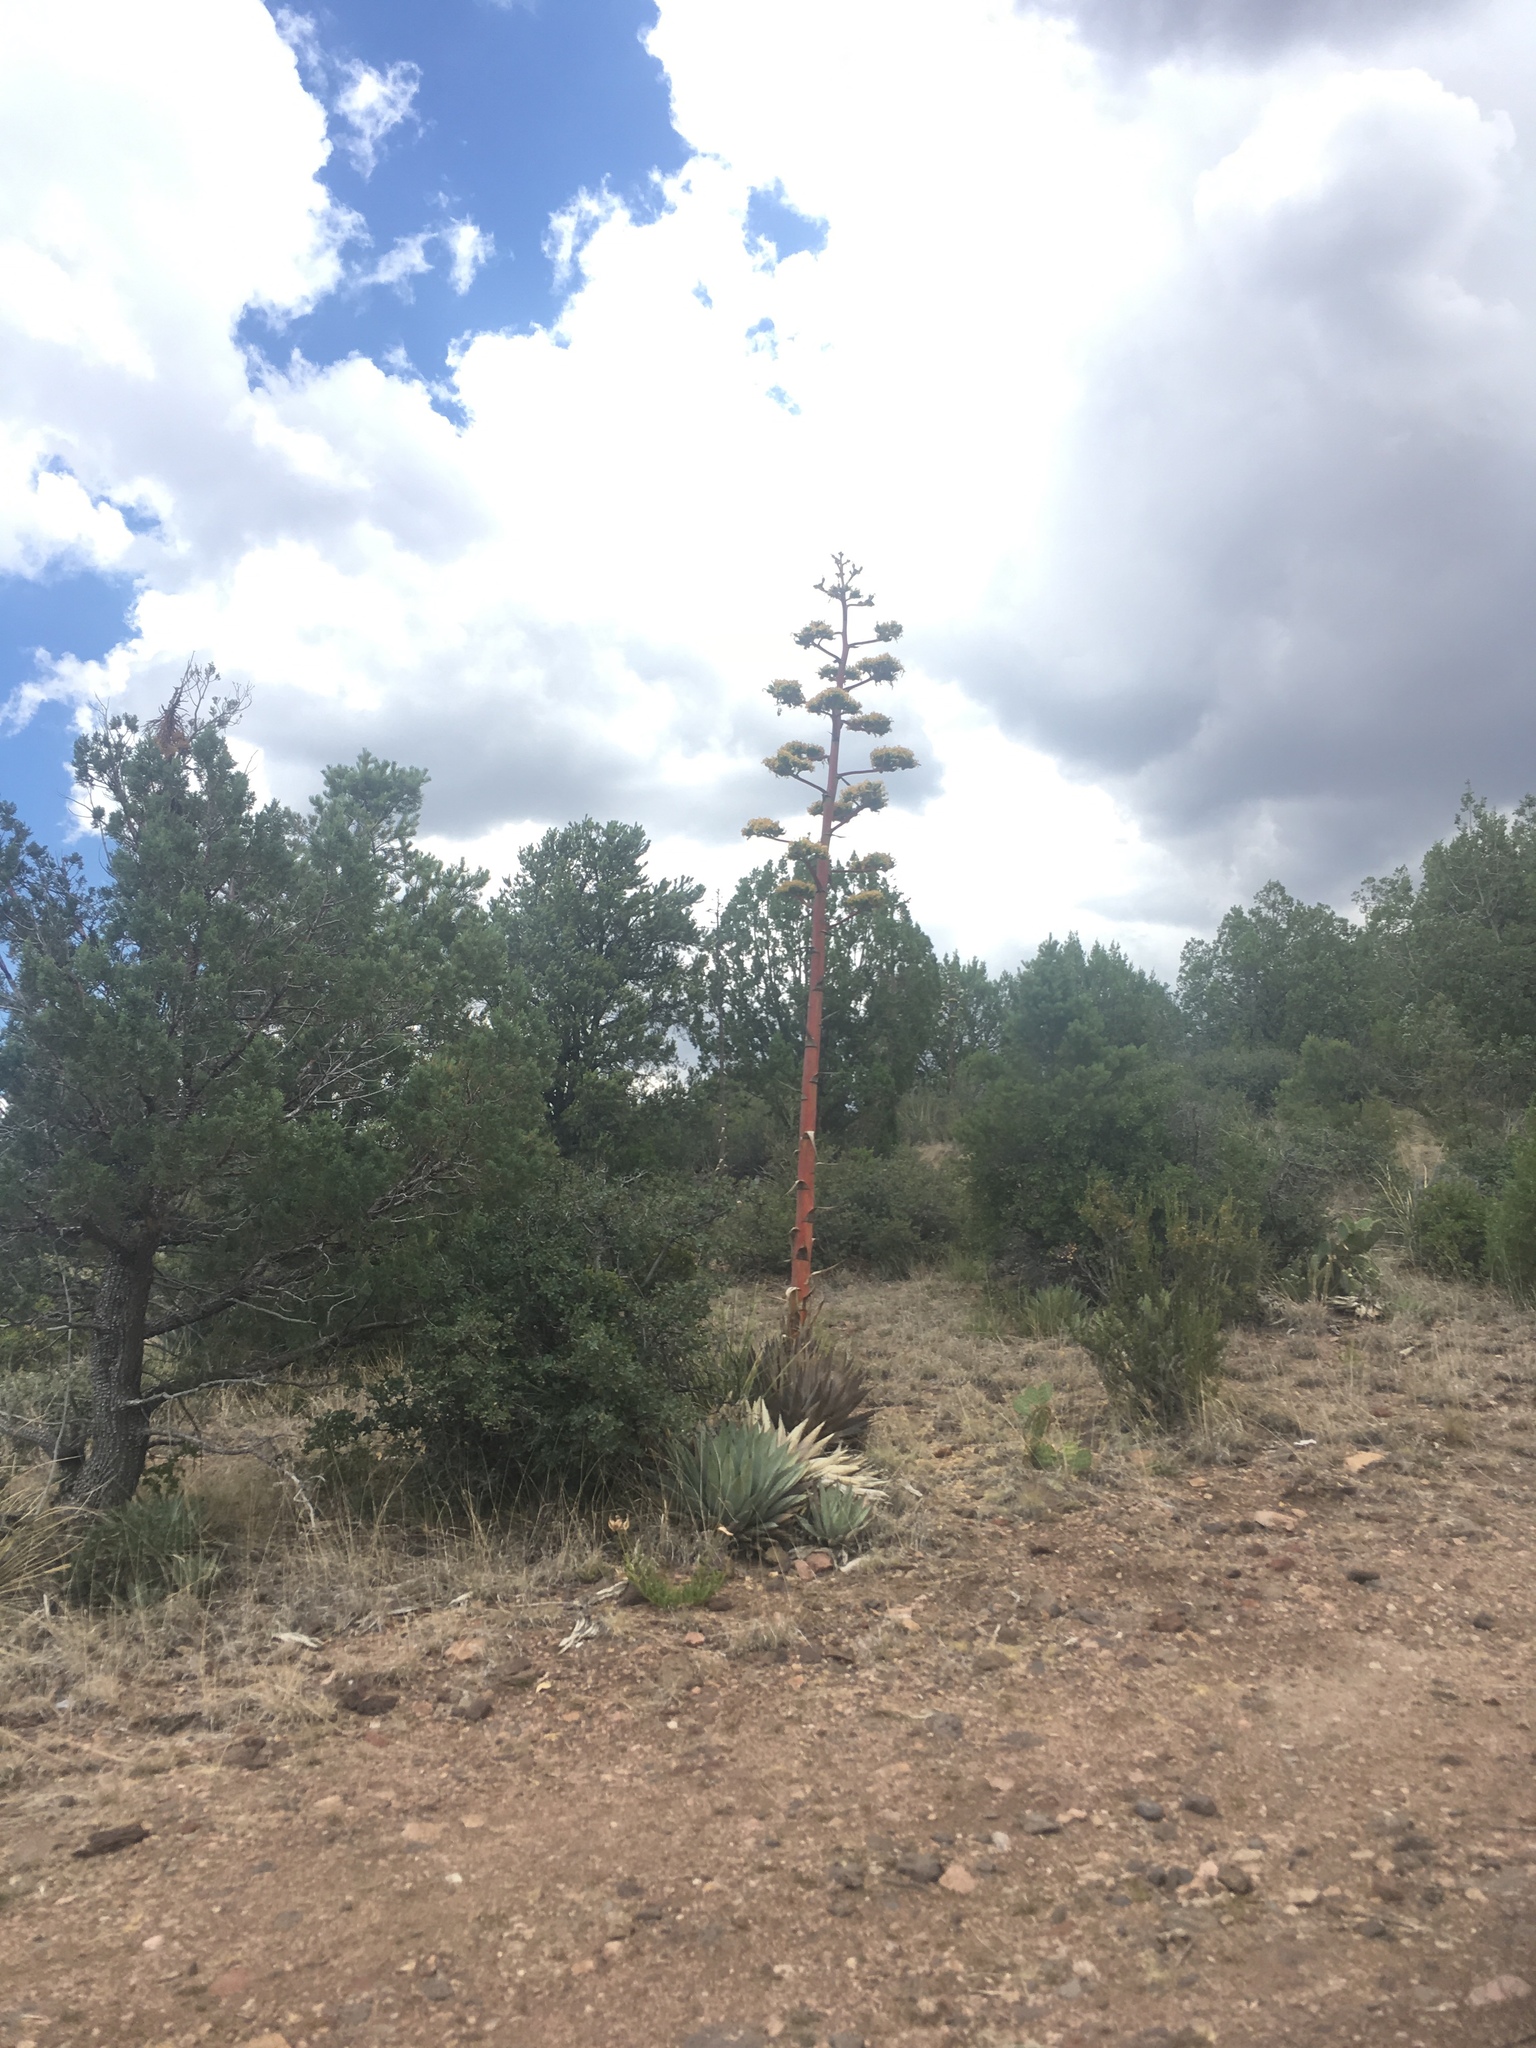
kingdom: Plantae
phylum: Tracheophyta
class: Liliopsida
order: Asparagales
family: Asparagaceae
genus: Agave
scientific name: Agave parryi
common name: Parry's agave
